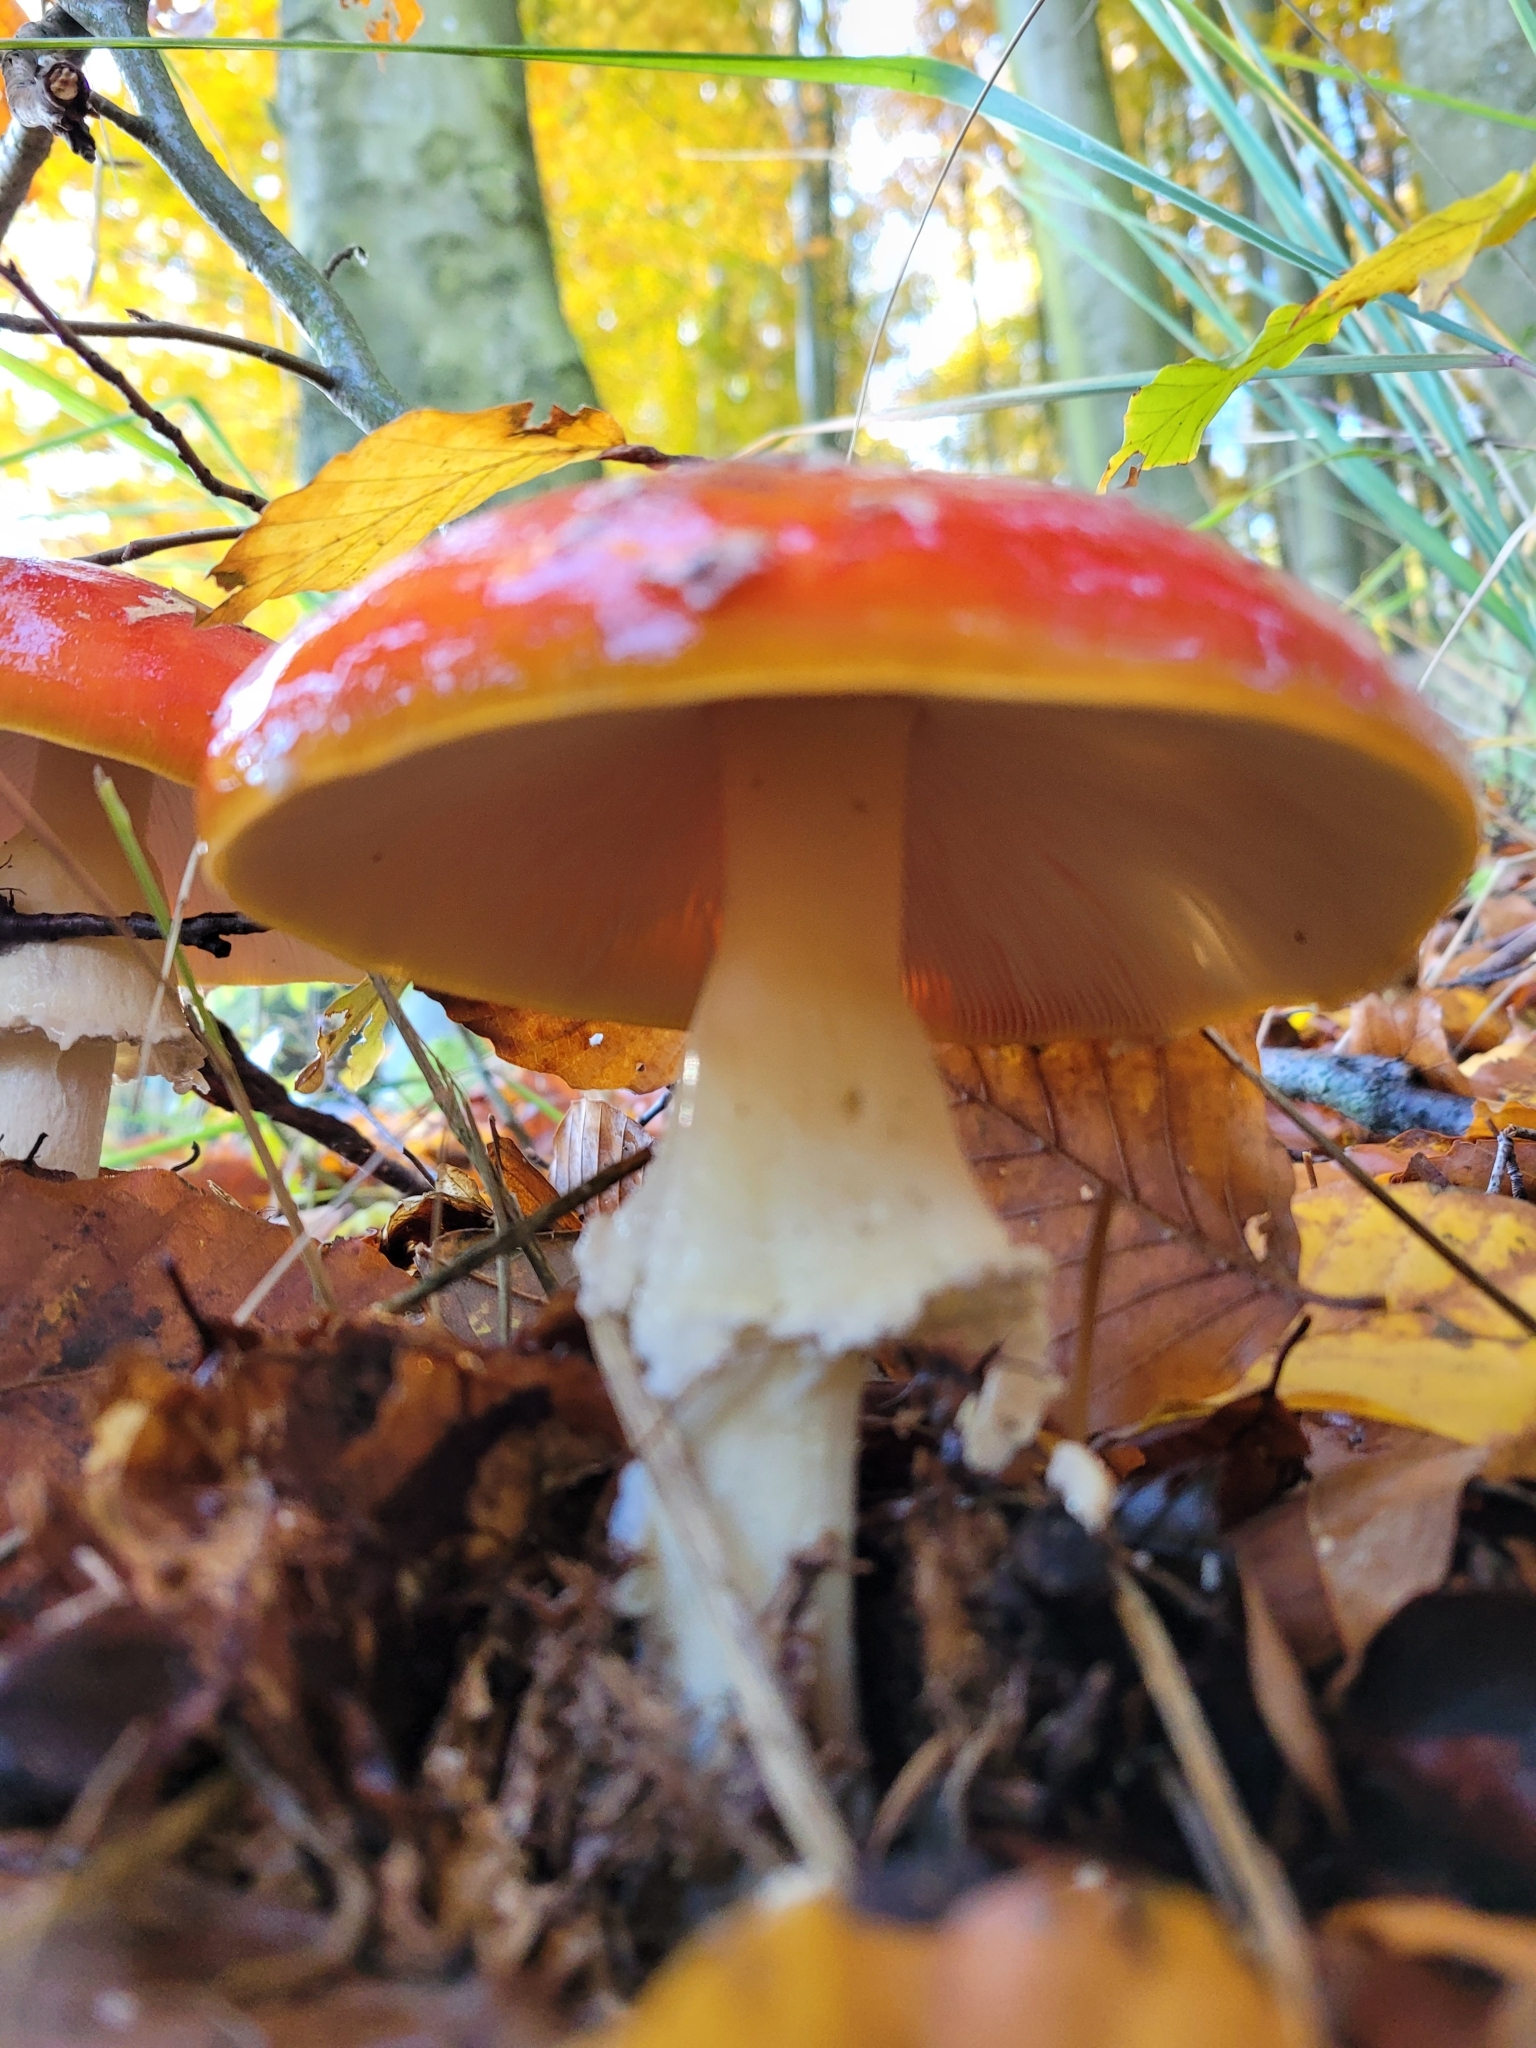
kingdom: Fungi
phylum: Basidiomycota
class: Agaricomycetes
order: Agaricales
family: Amanitaceae
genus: Amanita
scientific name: Amanita muscaria
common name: Fly agaric
